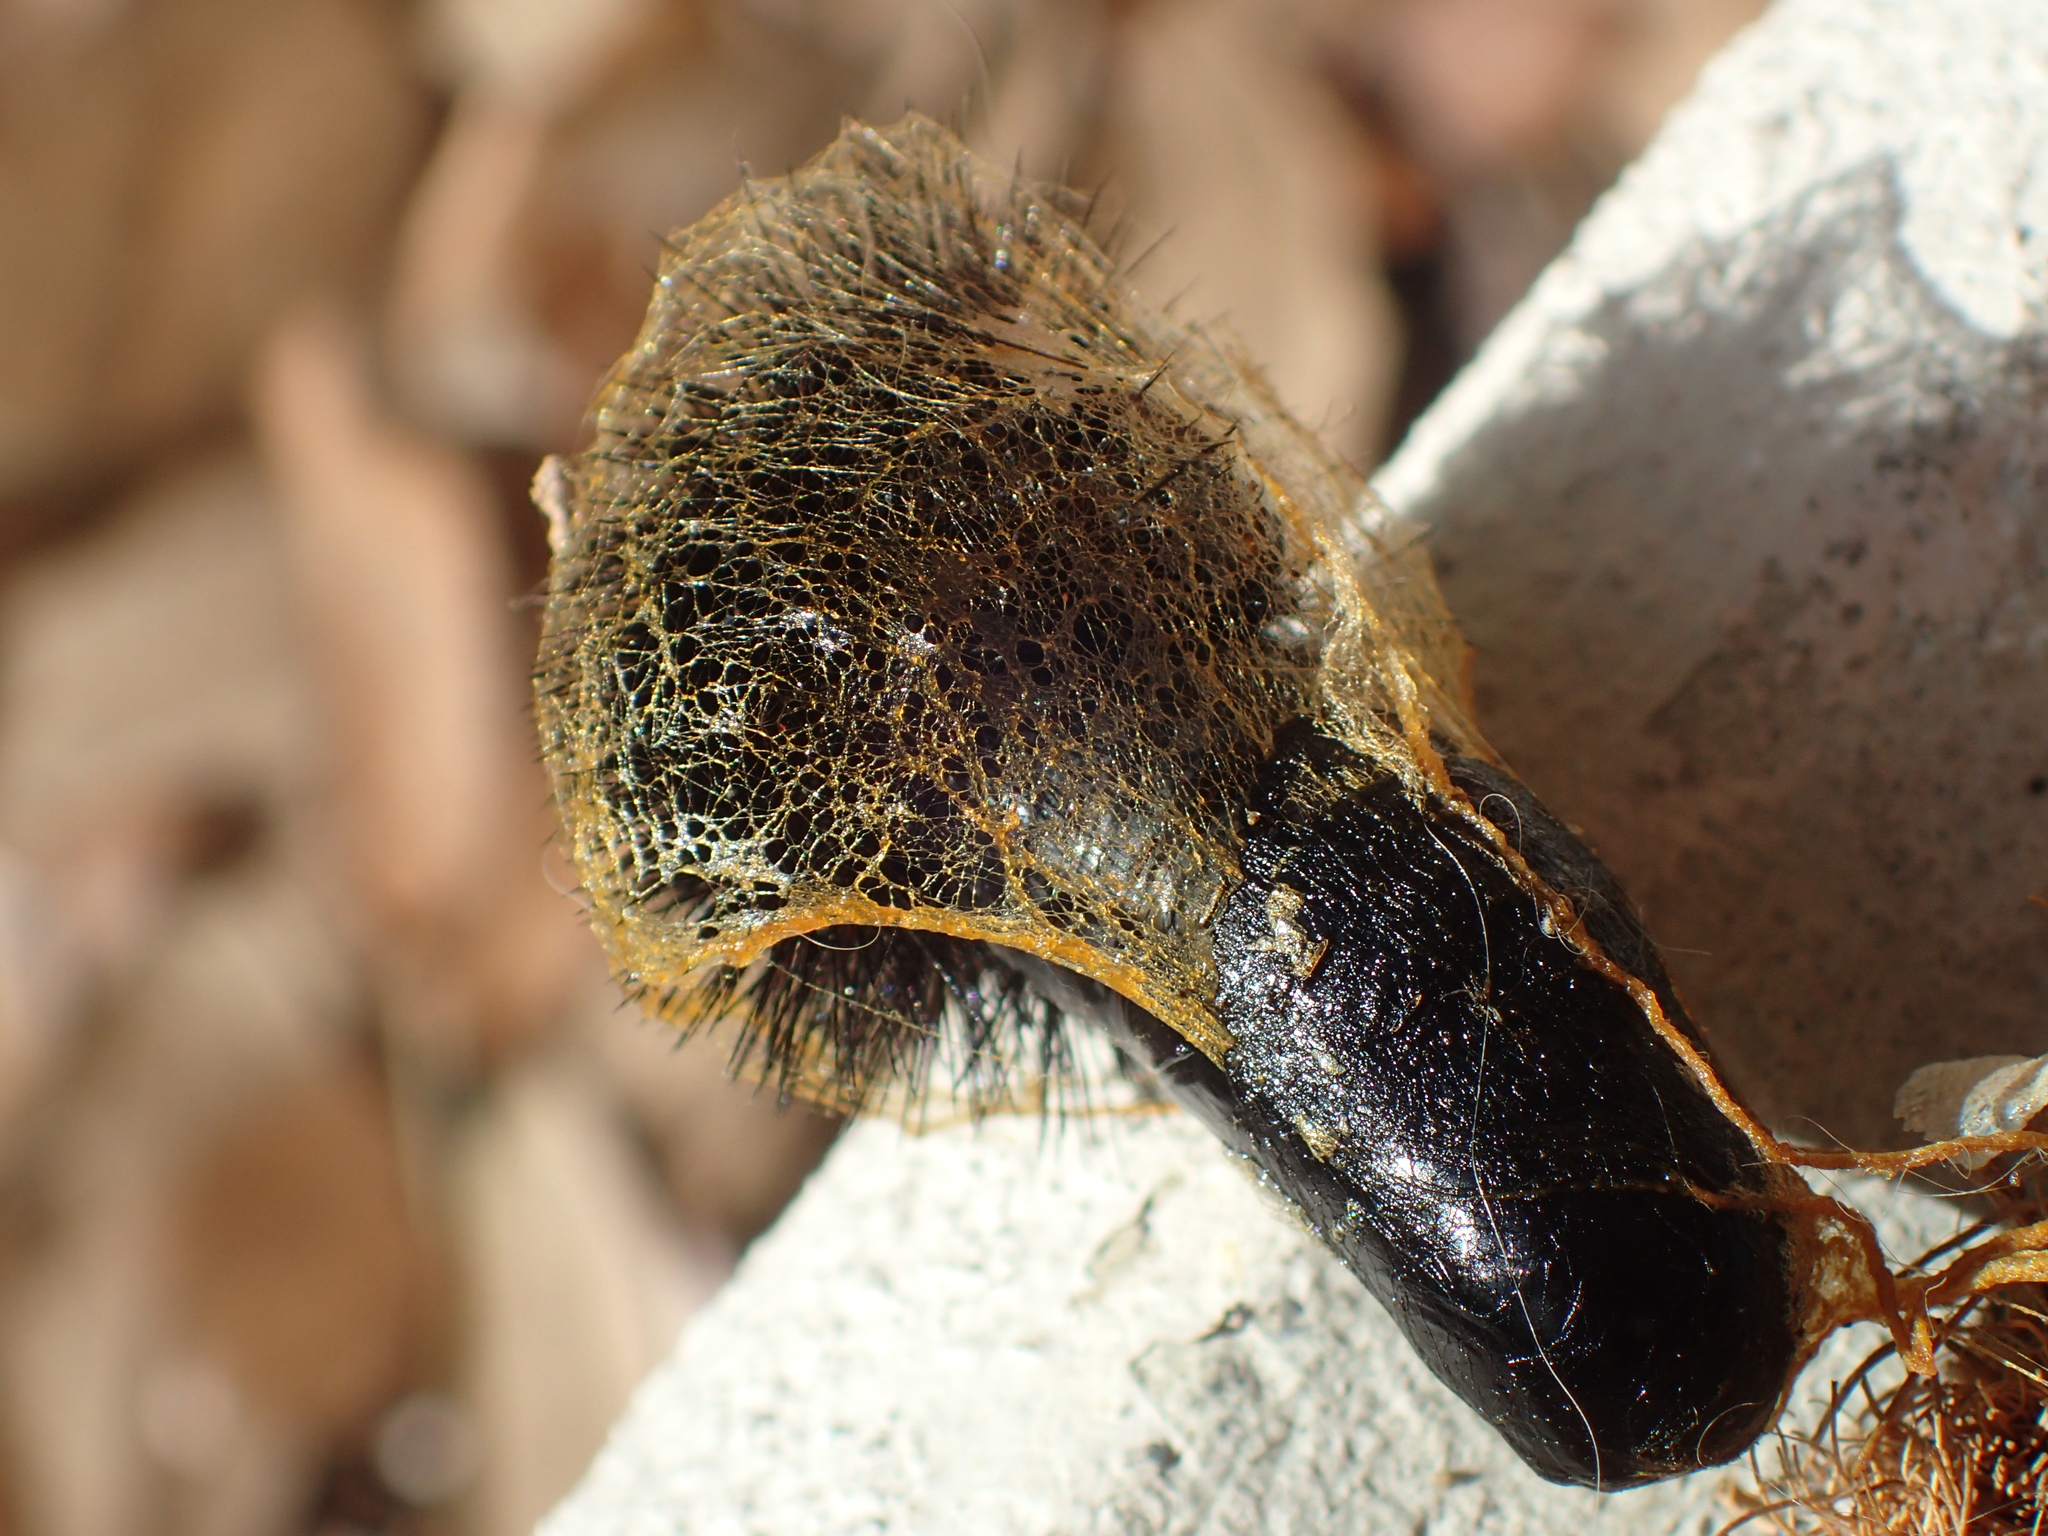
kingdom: Animalia
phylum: Arthropoda
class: Insecta
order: Lepidoptera
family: Erebidae
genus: Hypercompe
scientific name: Hypercompe scribonia
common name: Giant leopard moth
